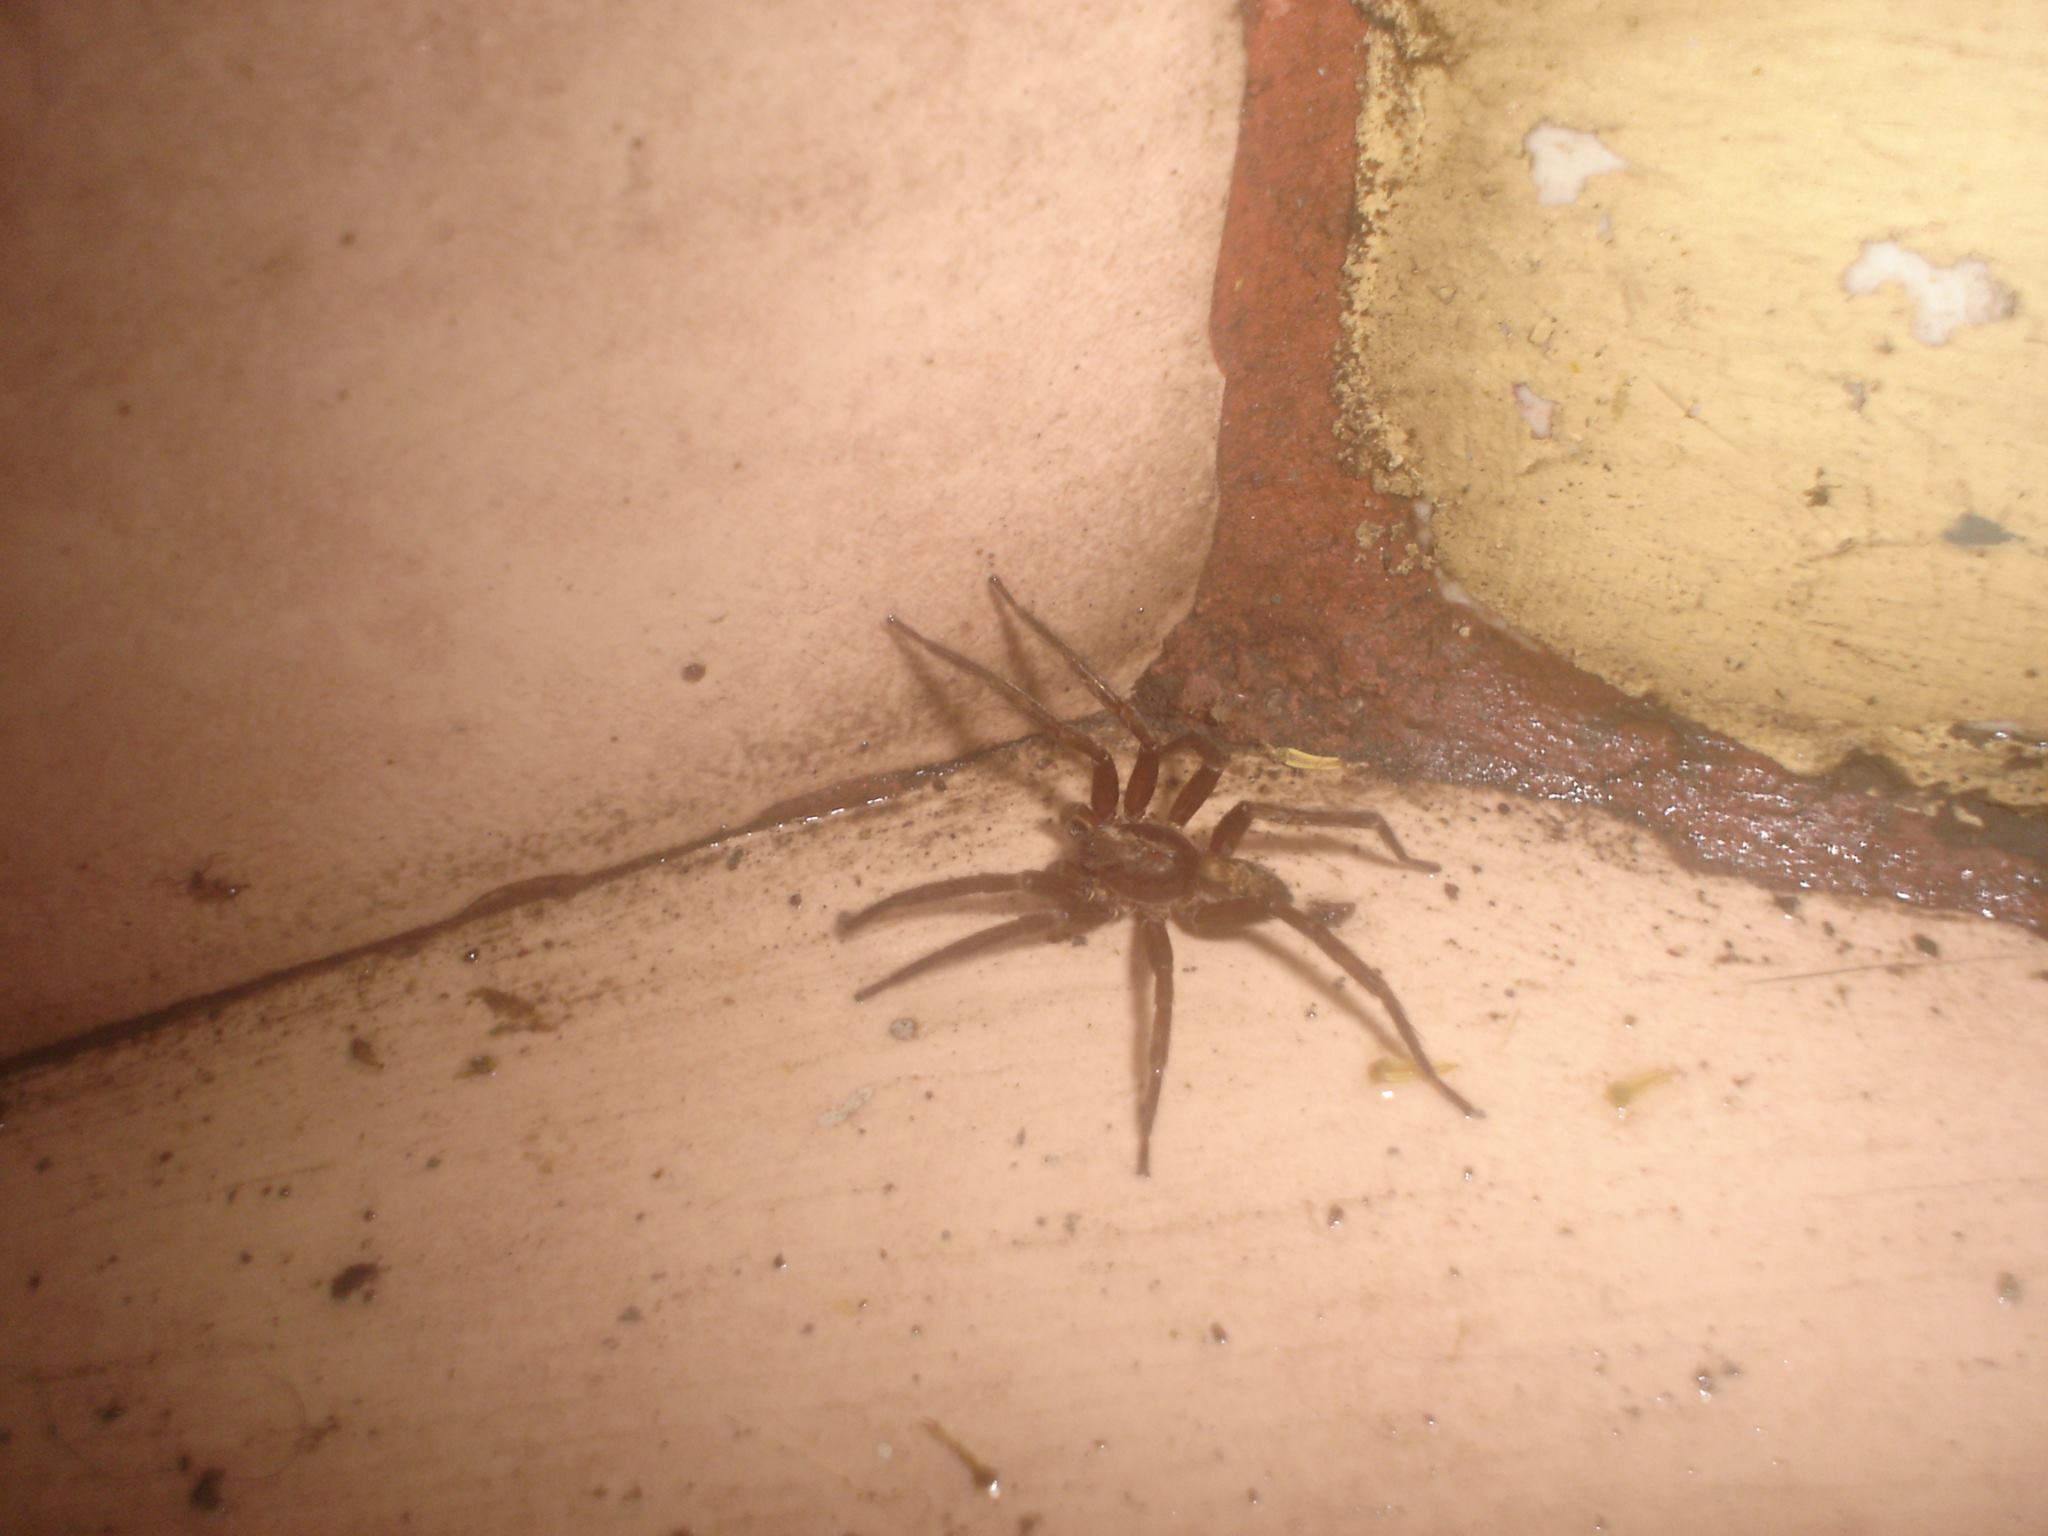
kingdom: Animalia
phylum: Arthropoda
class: Arachnida
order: Araneae
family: Ctenidae
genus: Asthenoctenus
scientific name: Asthenoctenus borellii
